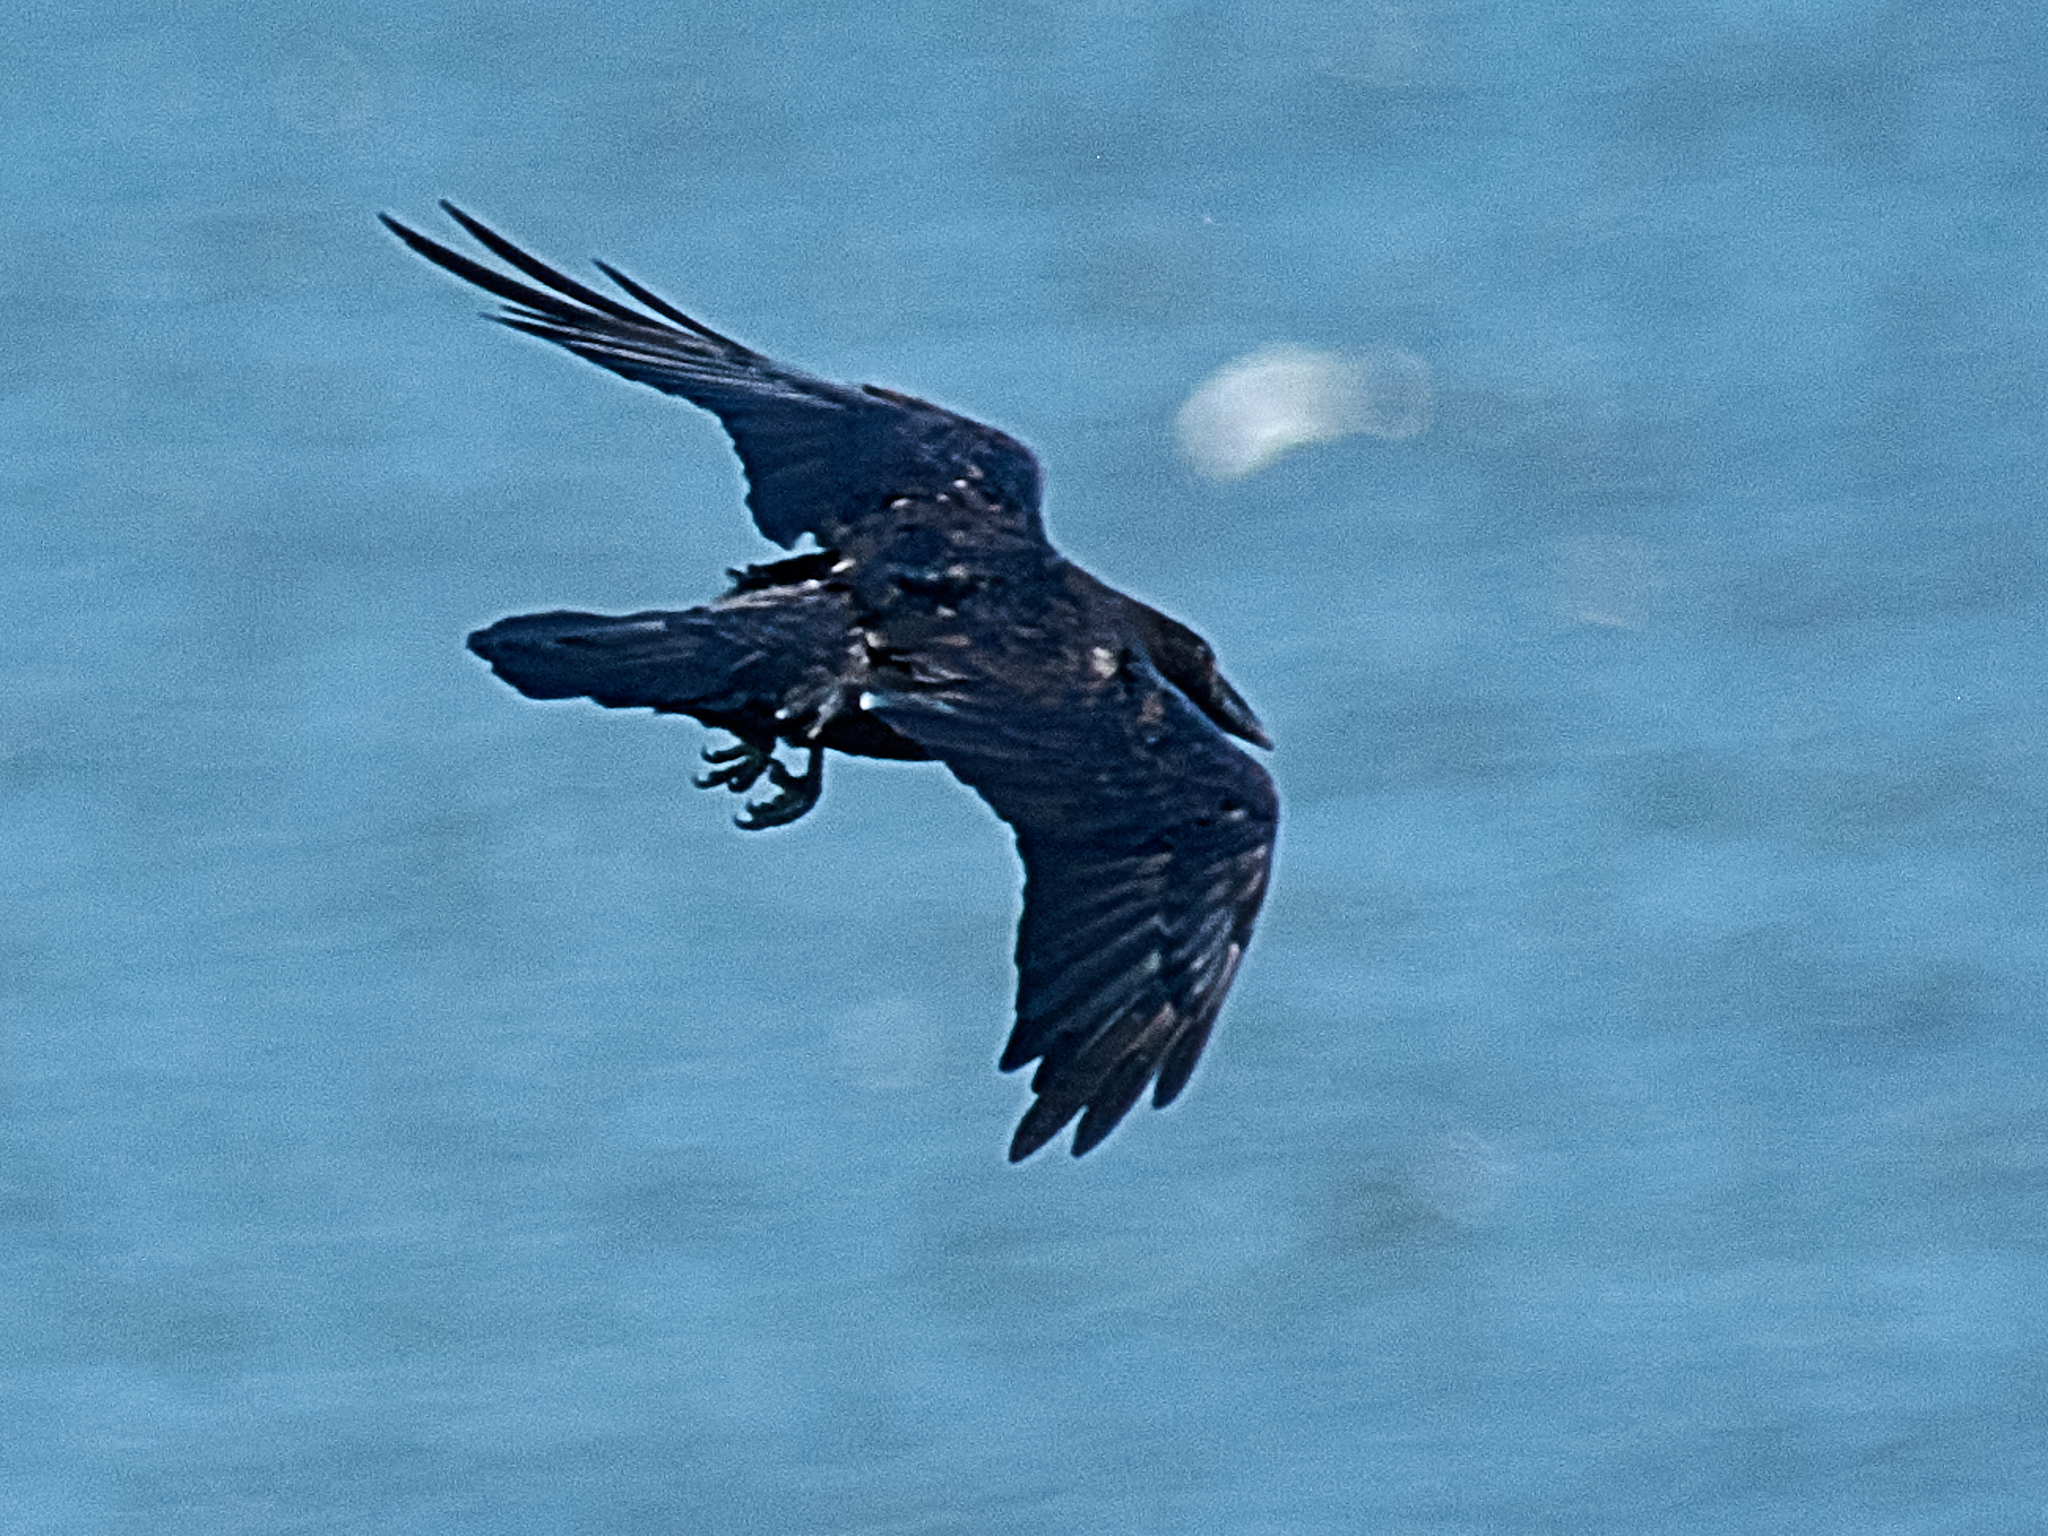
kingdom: Animalia
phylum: Chordata
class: Aves
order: Passeriformes
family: Corvidae
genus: Corvus
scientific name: Corvus corax
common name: Common raven
